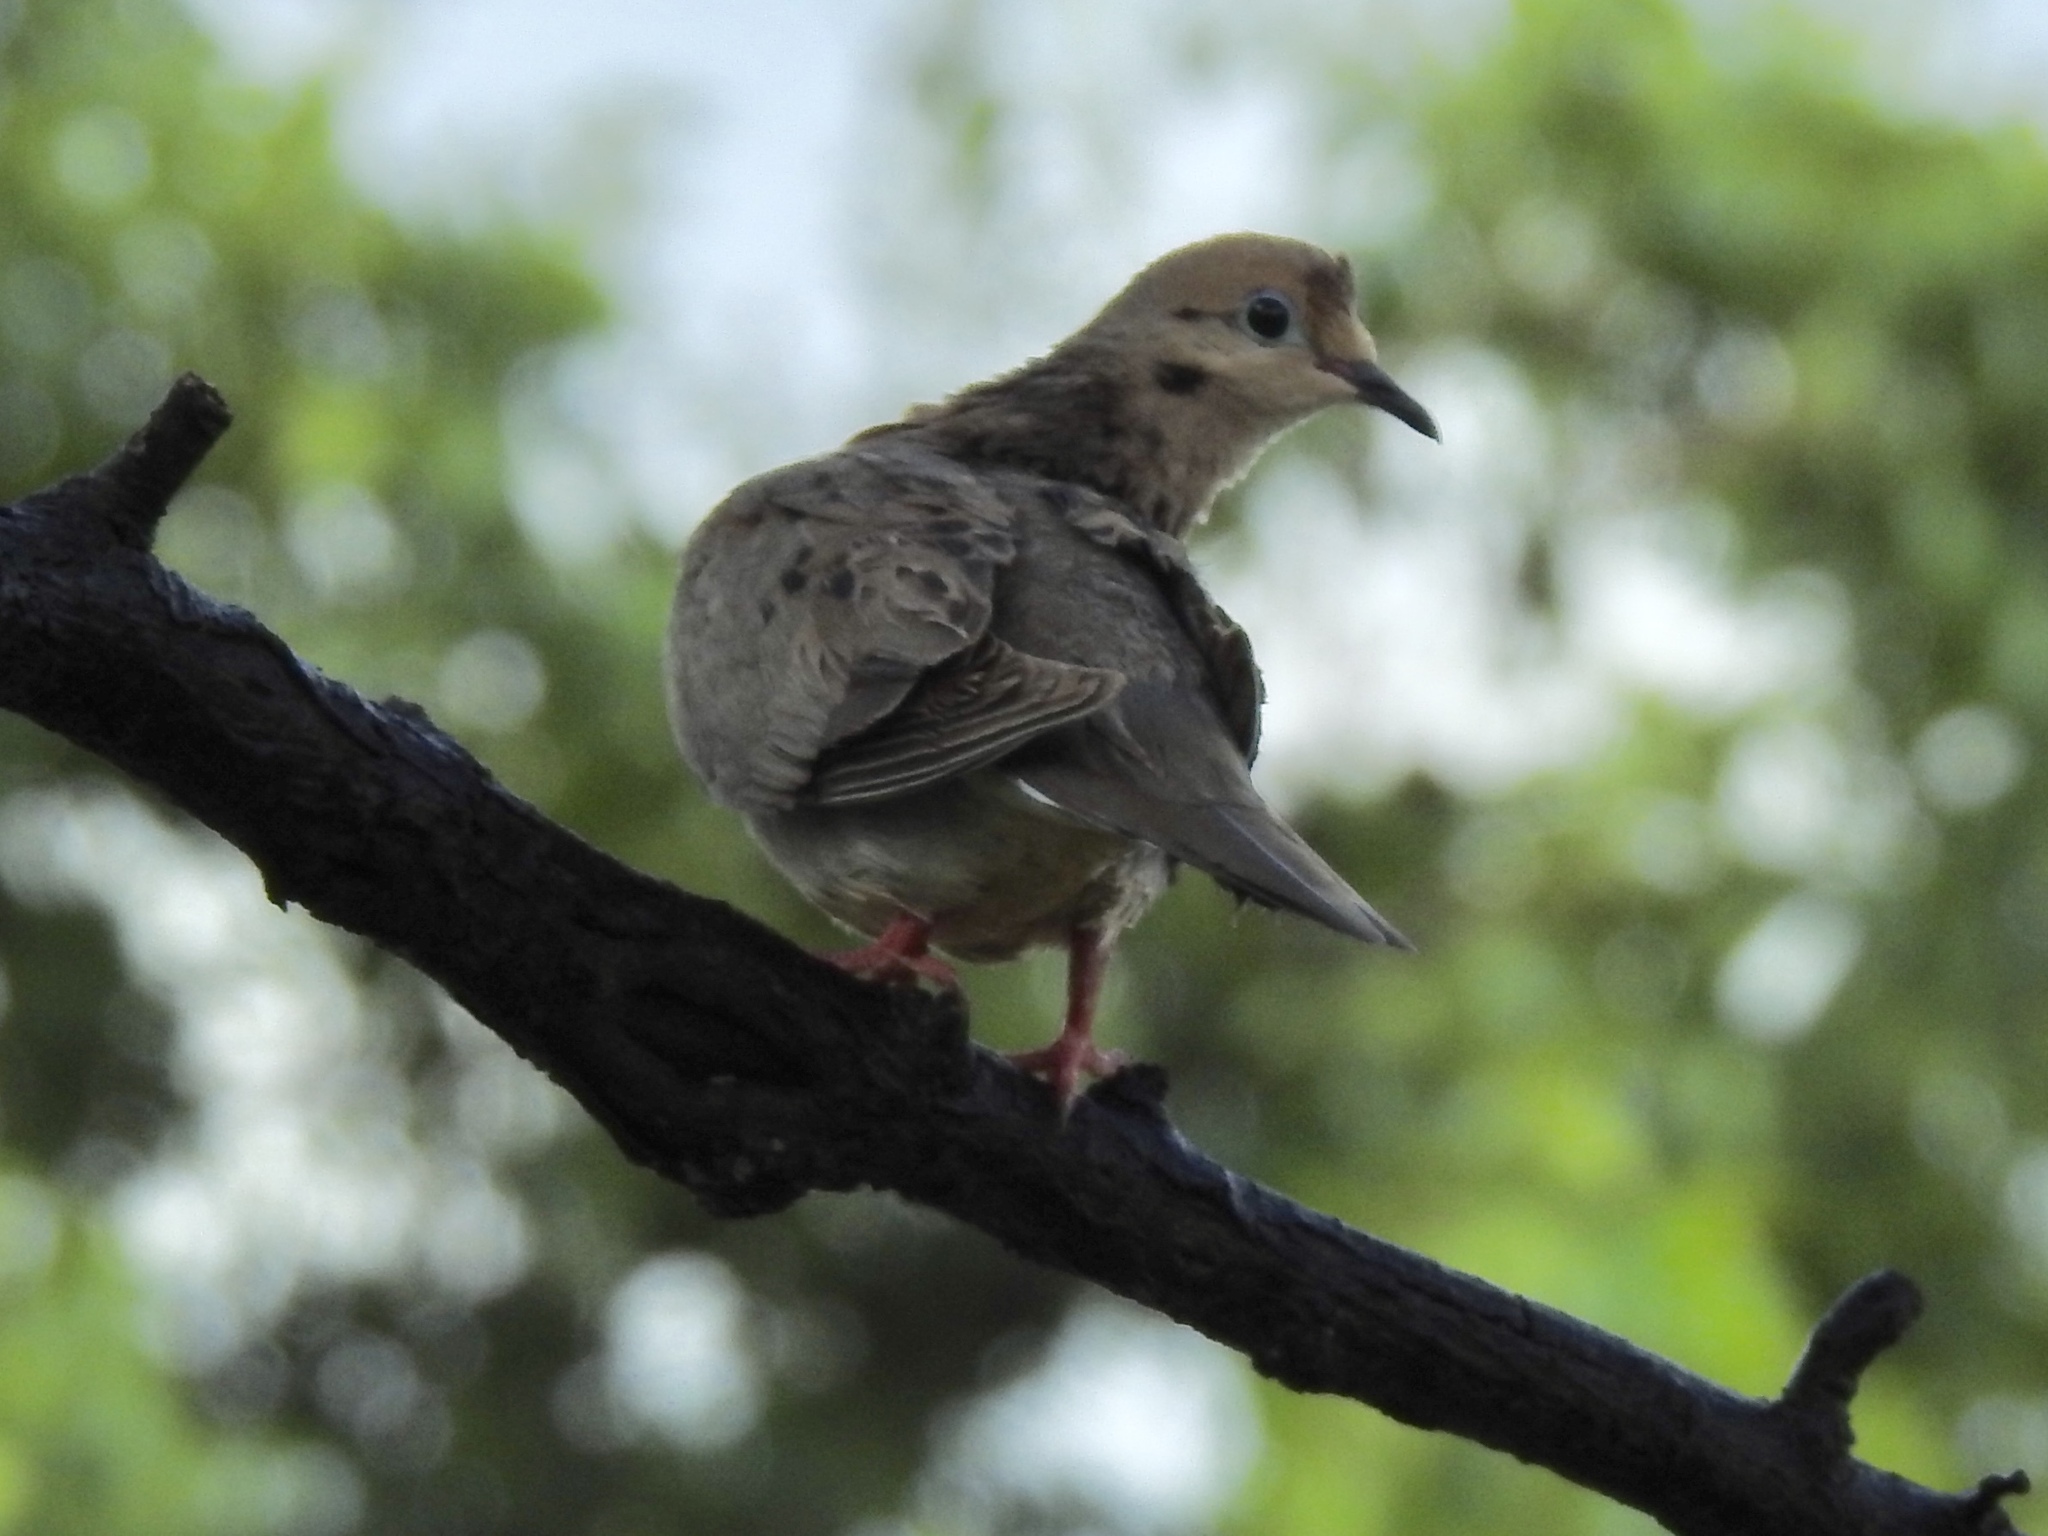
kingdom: Animalia
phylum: Chordata
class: Aves
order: Columbiformes
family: Columbidae
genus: Zenaida
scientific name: Zenaida macroura
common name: Mourning dove
